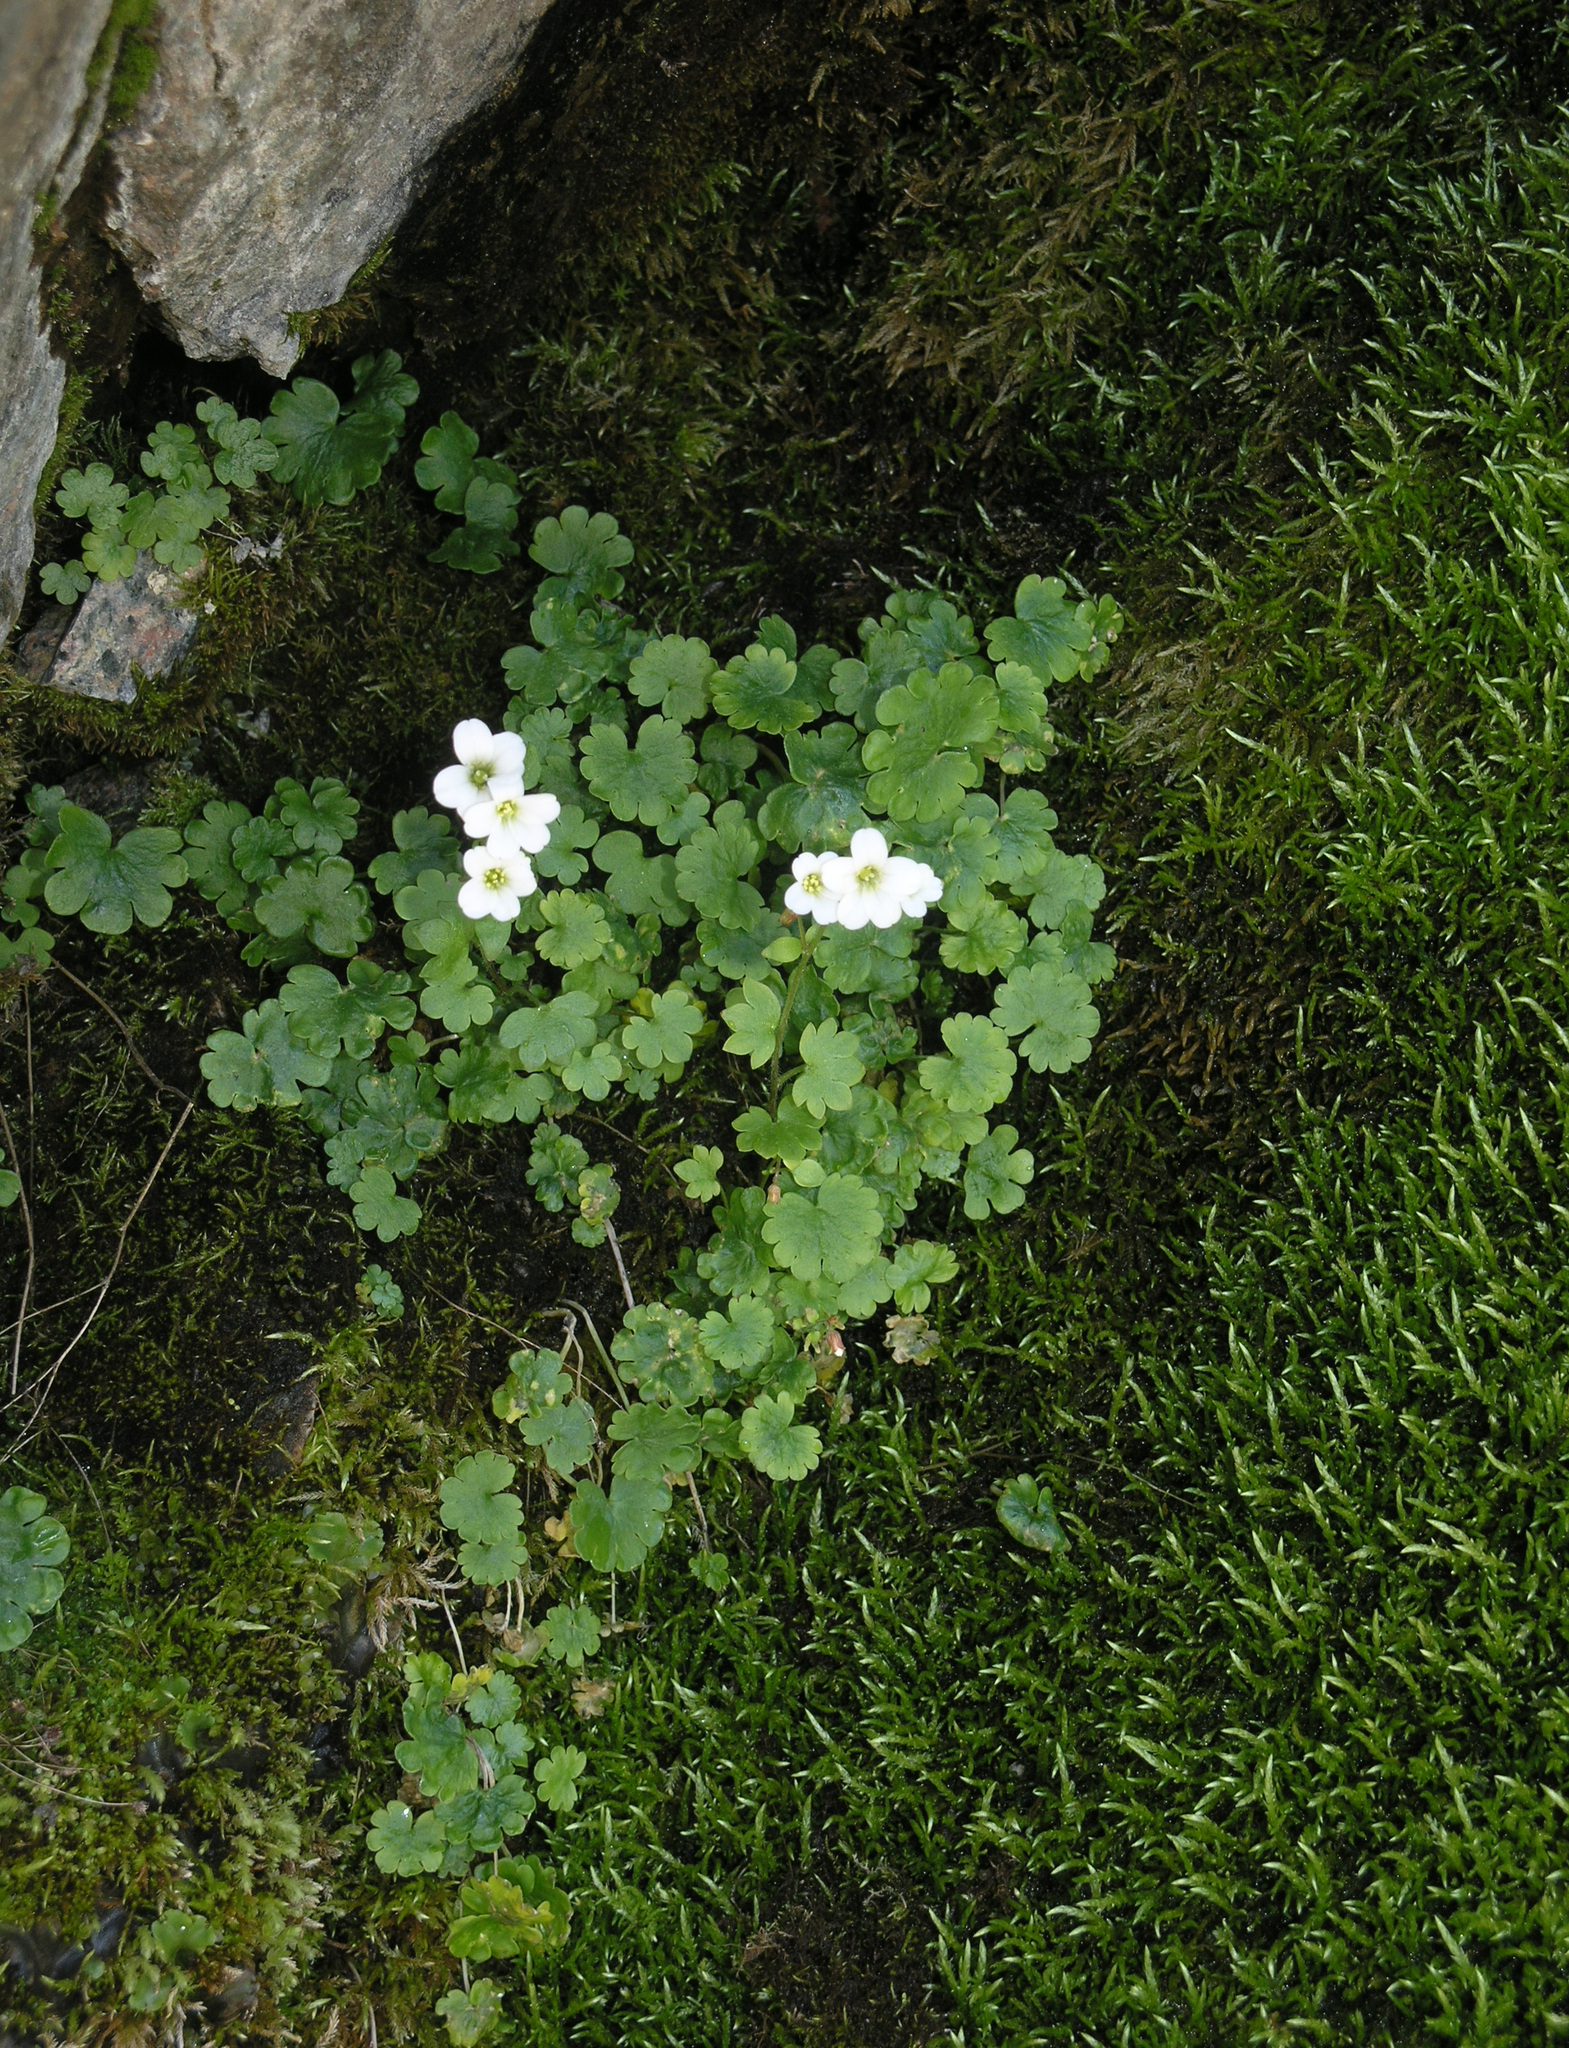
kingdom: Plantae
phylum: Tracheophyta
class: Magnoliopsida
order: Saxifragales
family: Saxifragaceae
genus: Saxifraga
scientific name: Saxifraga sibirica
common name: Siberian saxifrage
